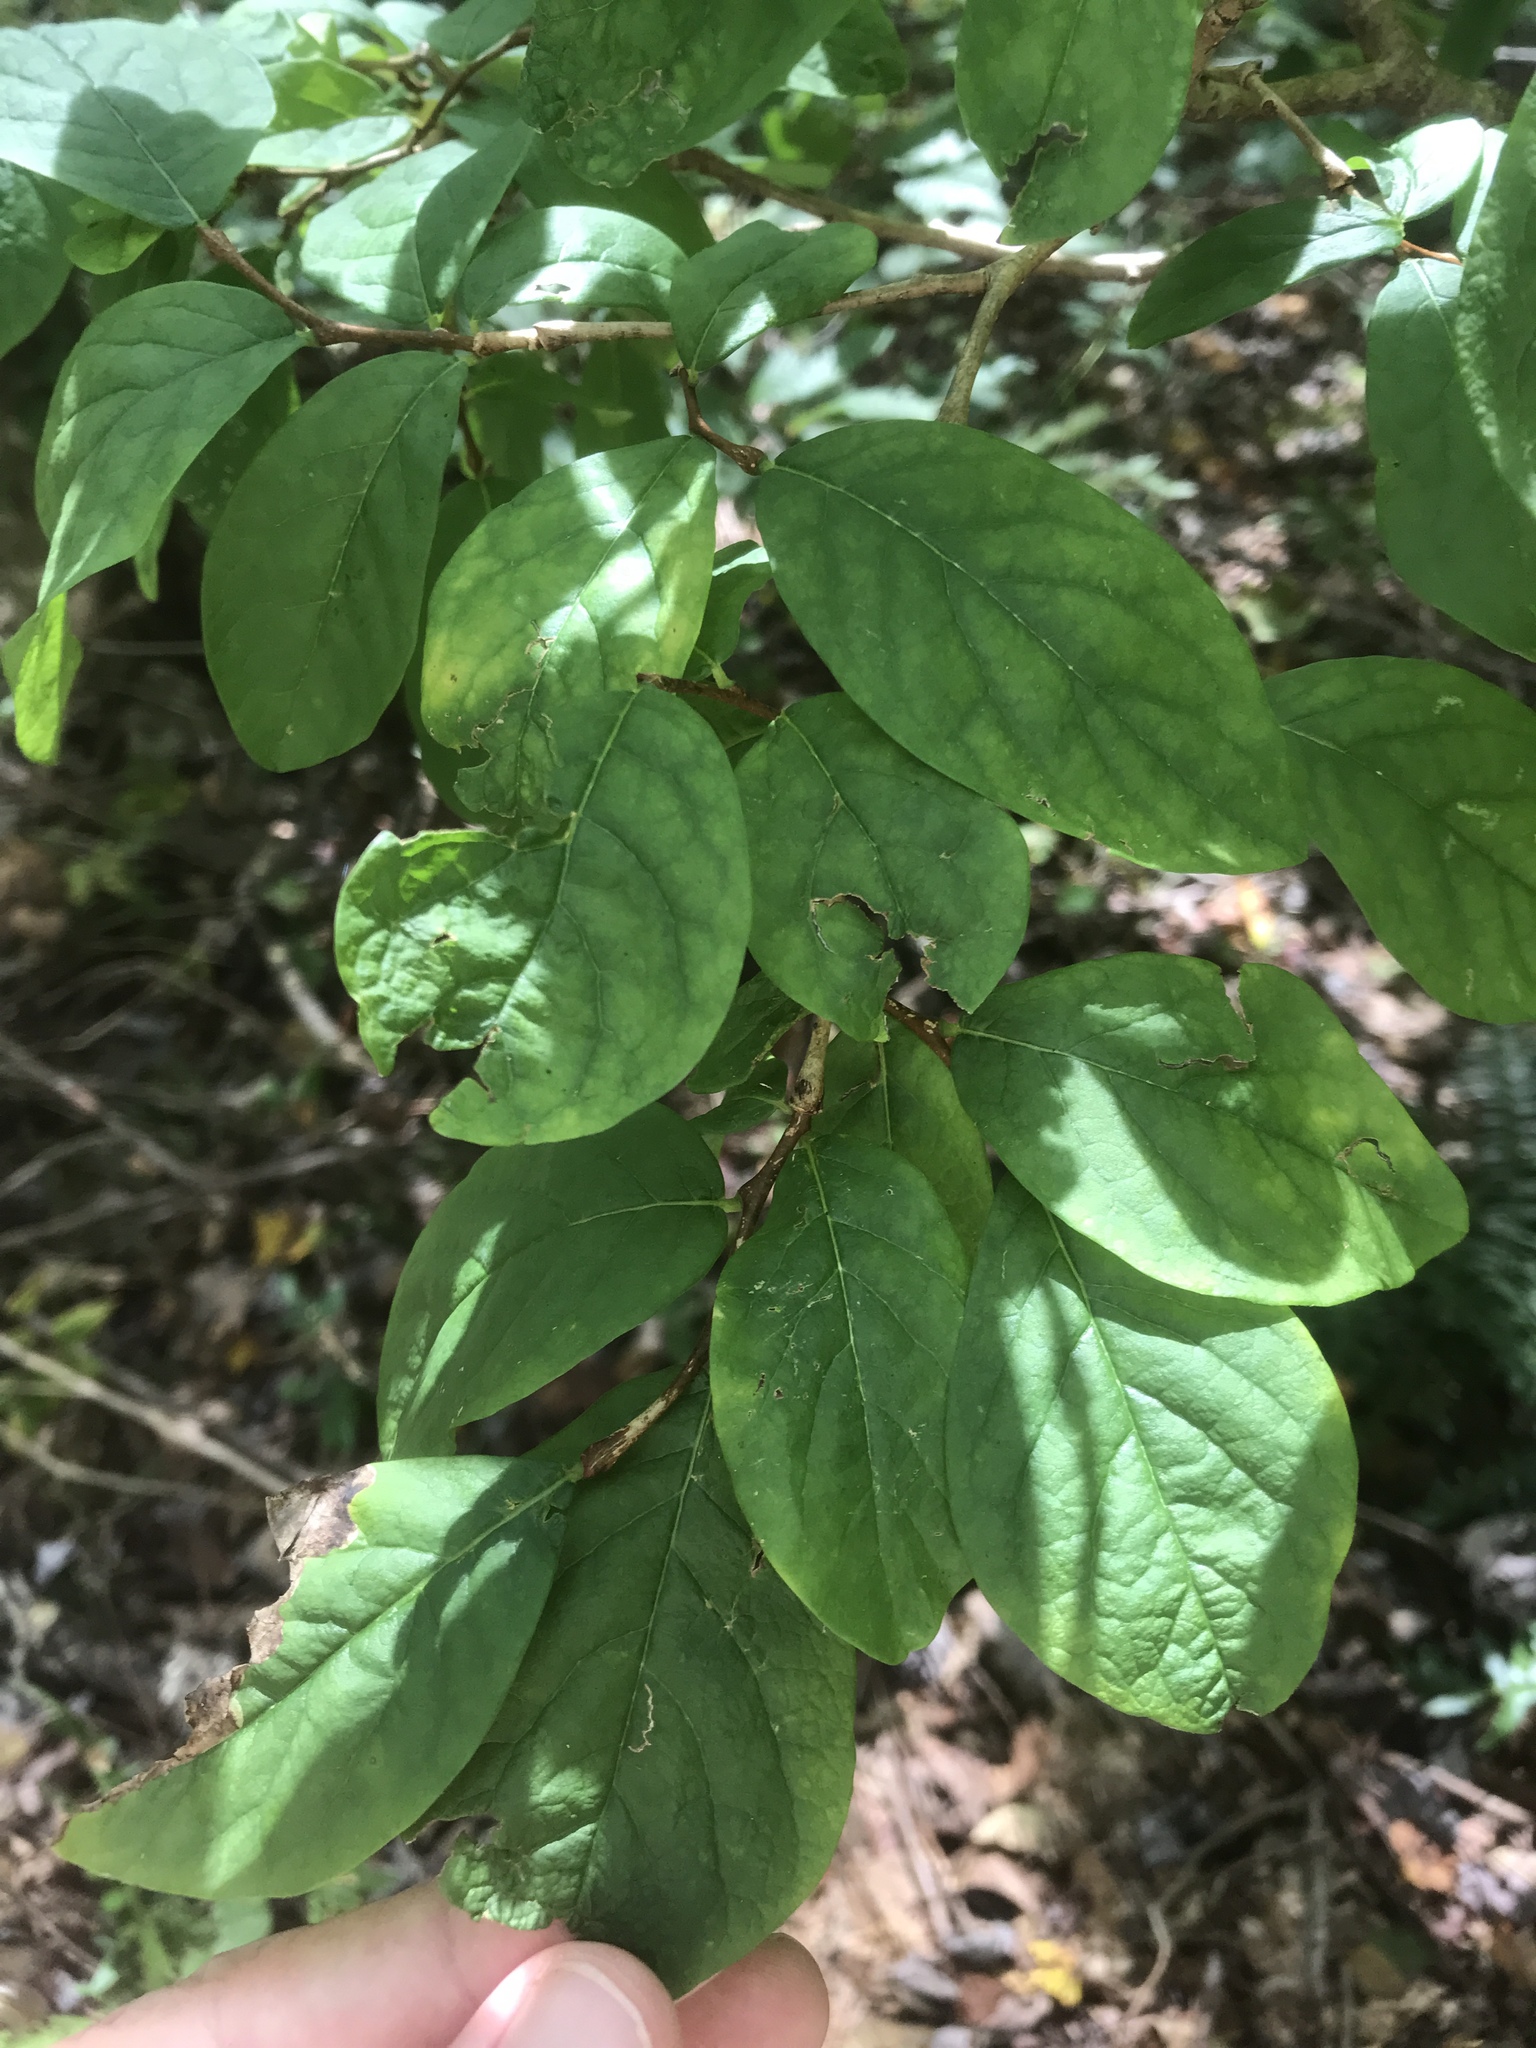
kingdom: Plantae
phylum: Tracheophyta
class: Magnoliopsida
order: Malvales
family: Thymelaeaceae
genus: Dirca
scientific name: Dirca palustris
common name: Leatherwood
